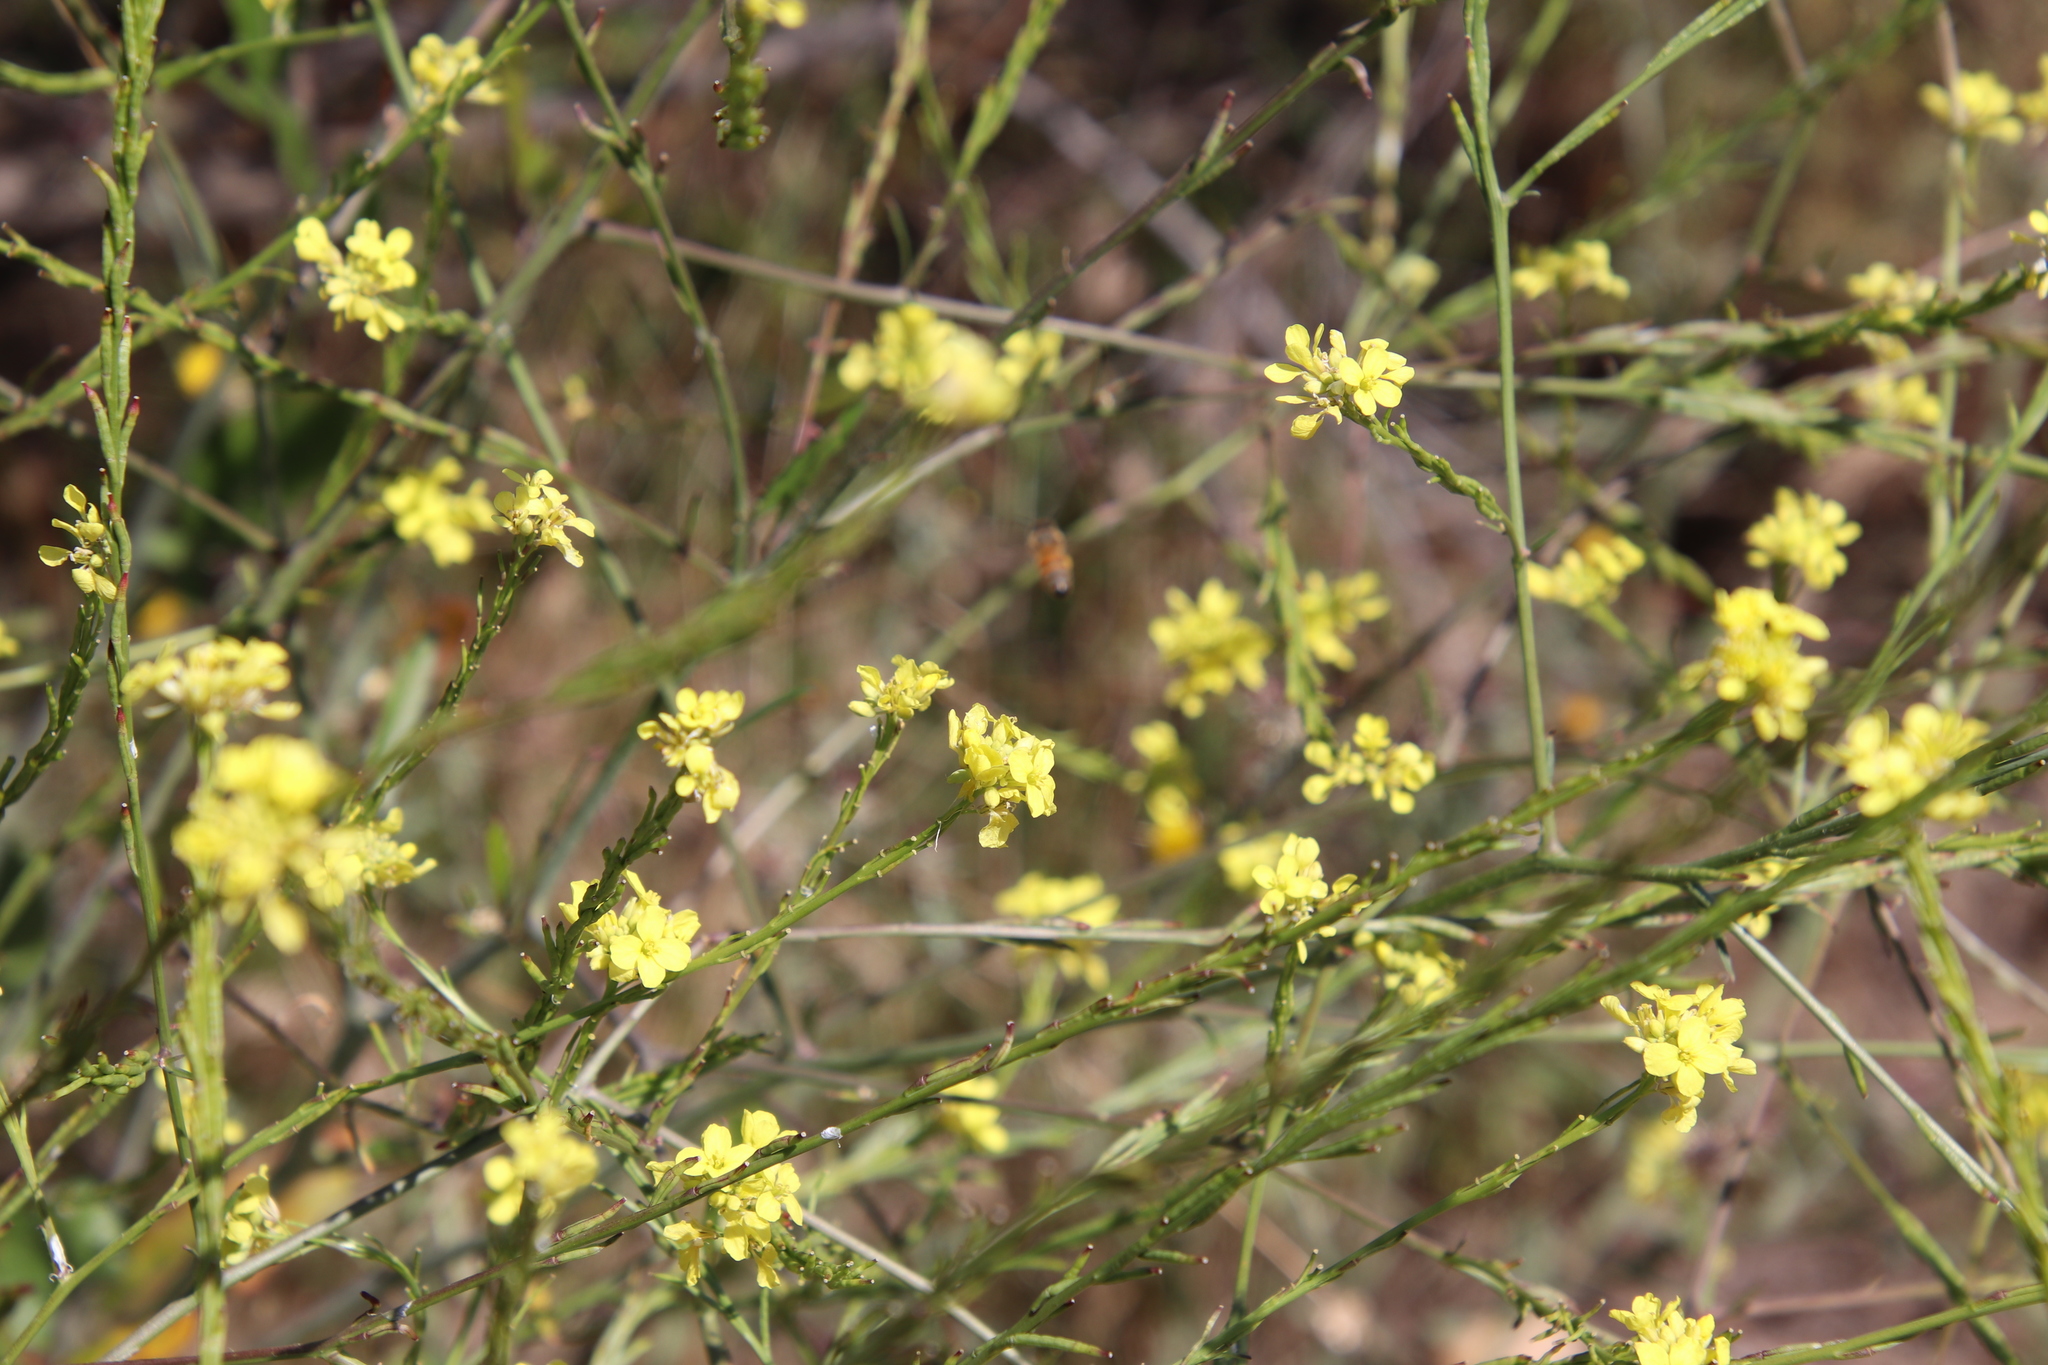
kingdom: Plantae
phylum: Tracheophyta
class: Magnoliopsida
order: Brassicales
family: Brassicaceae
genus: Hirschfeldia
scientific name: Hirschfeldia incana
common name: Hoary mustard
